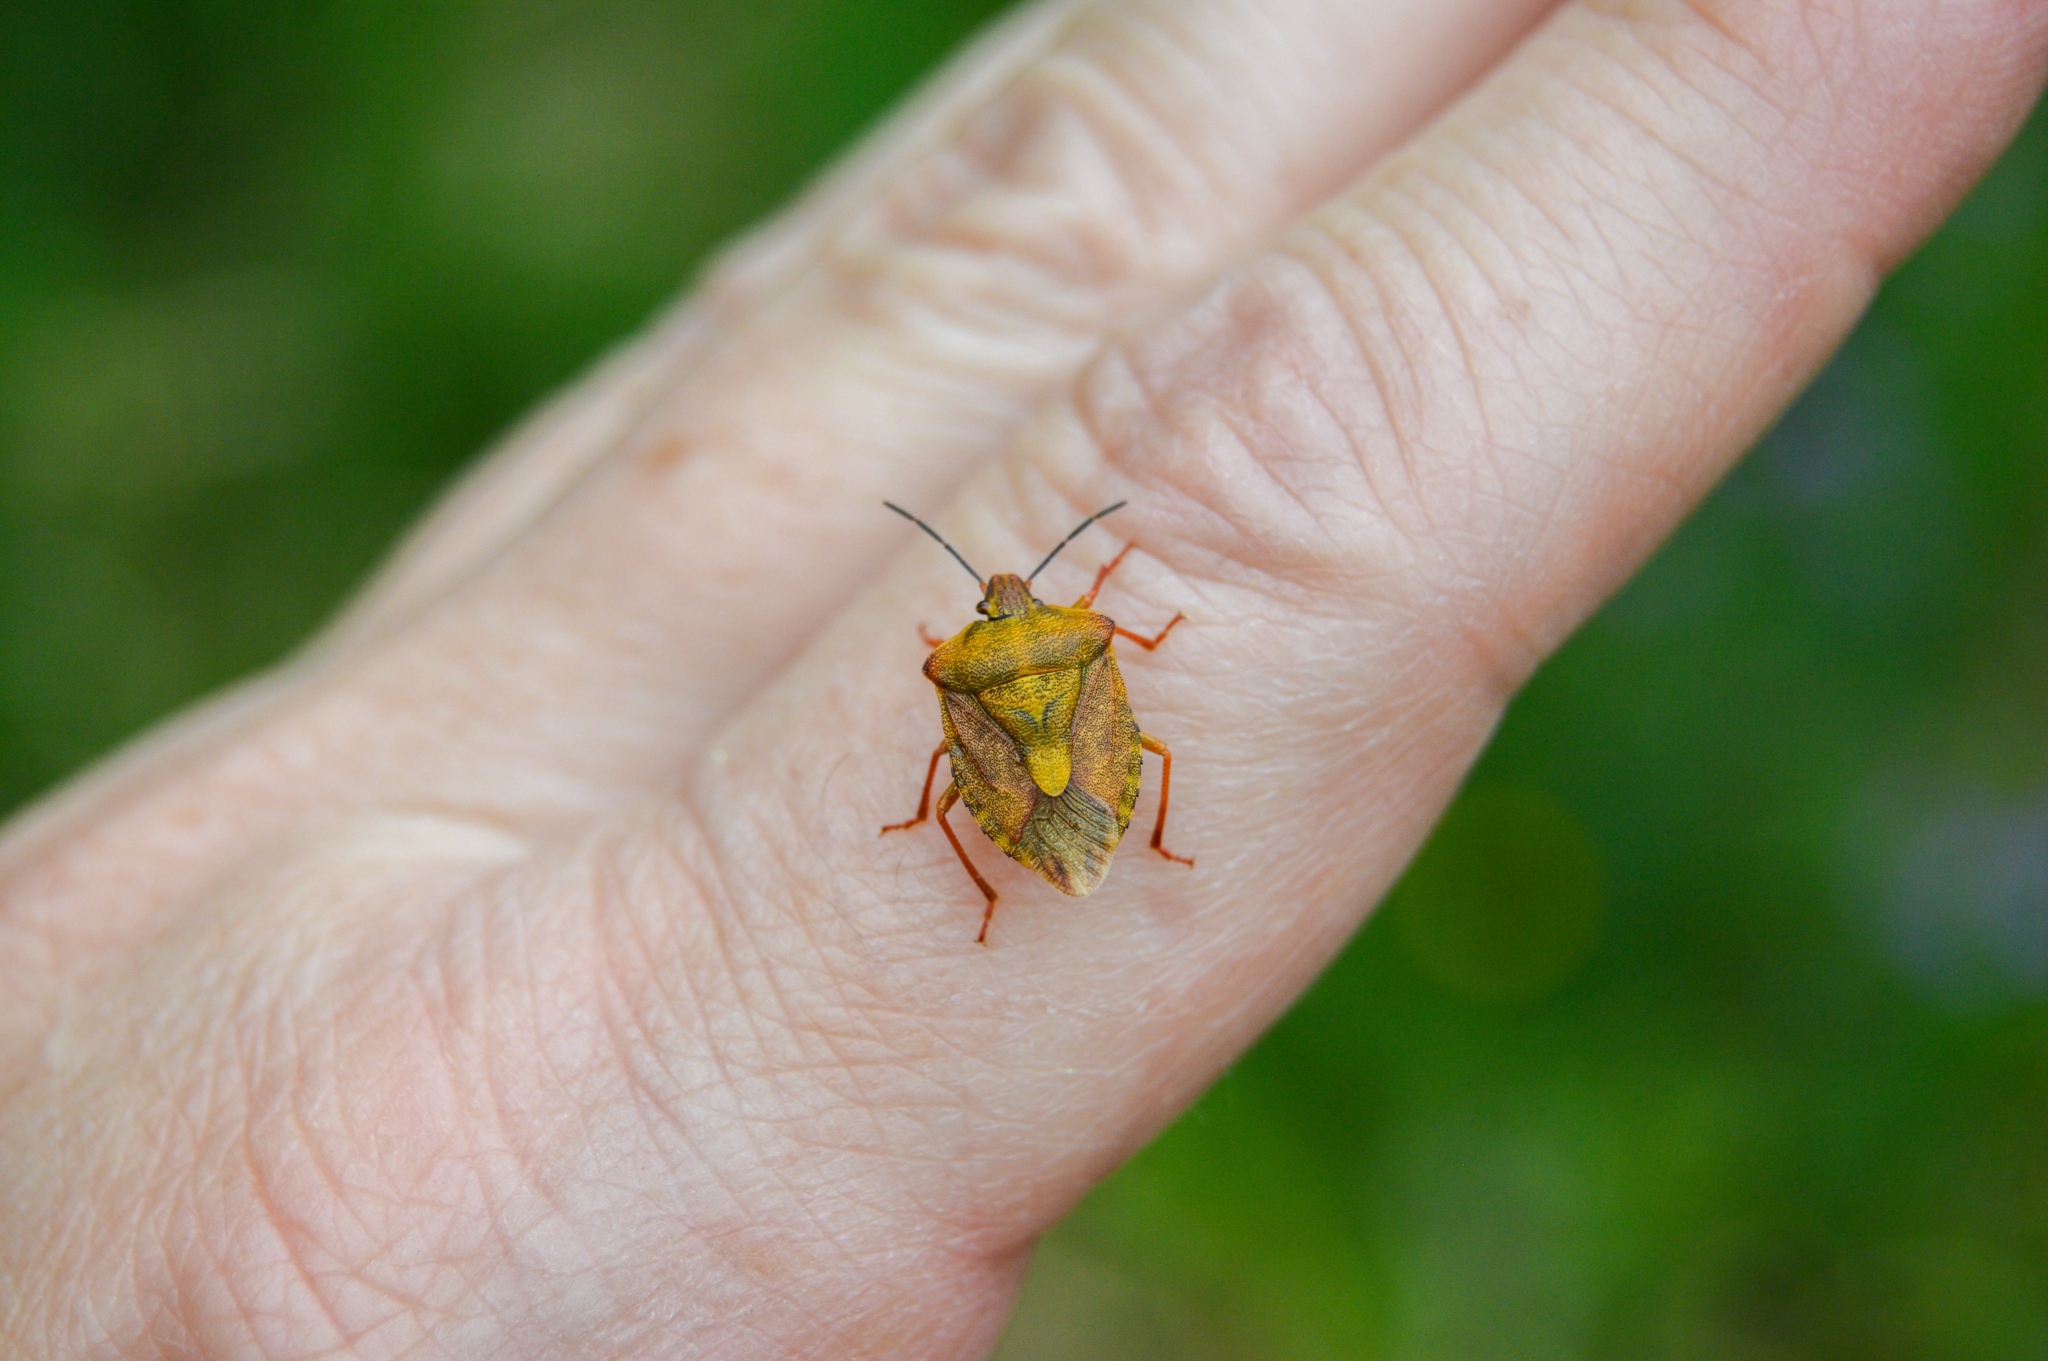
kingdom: Animalia
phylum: Arthropoda
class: Insecta
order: Hemiptera
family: Pentatomidae
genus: Carpocoris
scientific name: Carpocoris purpureipennis
